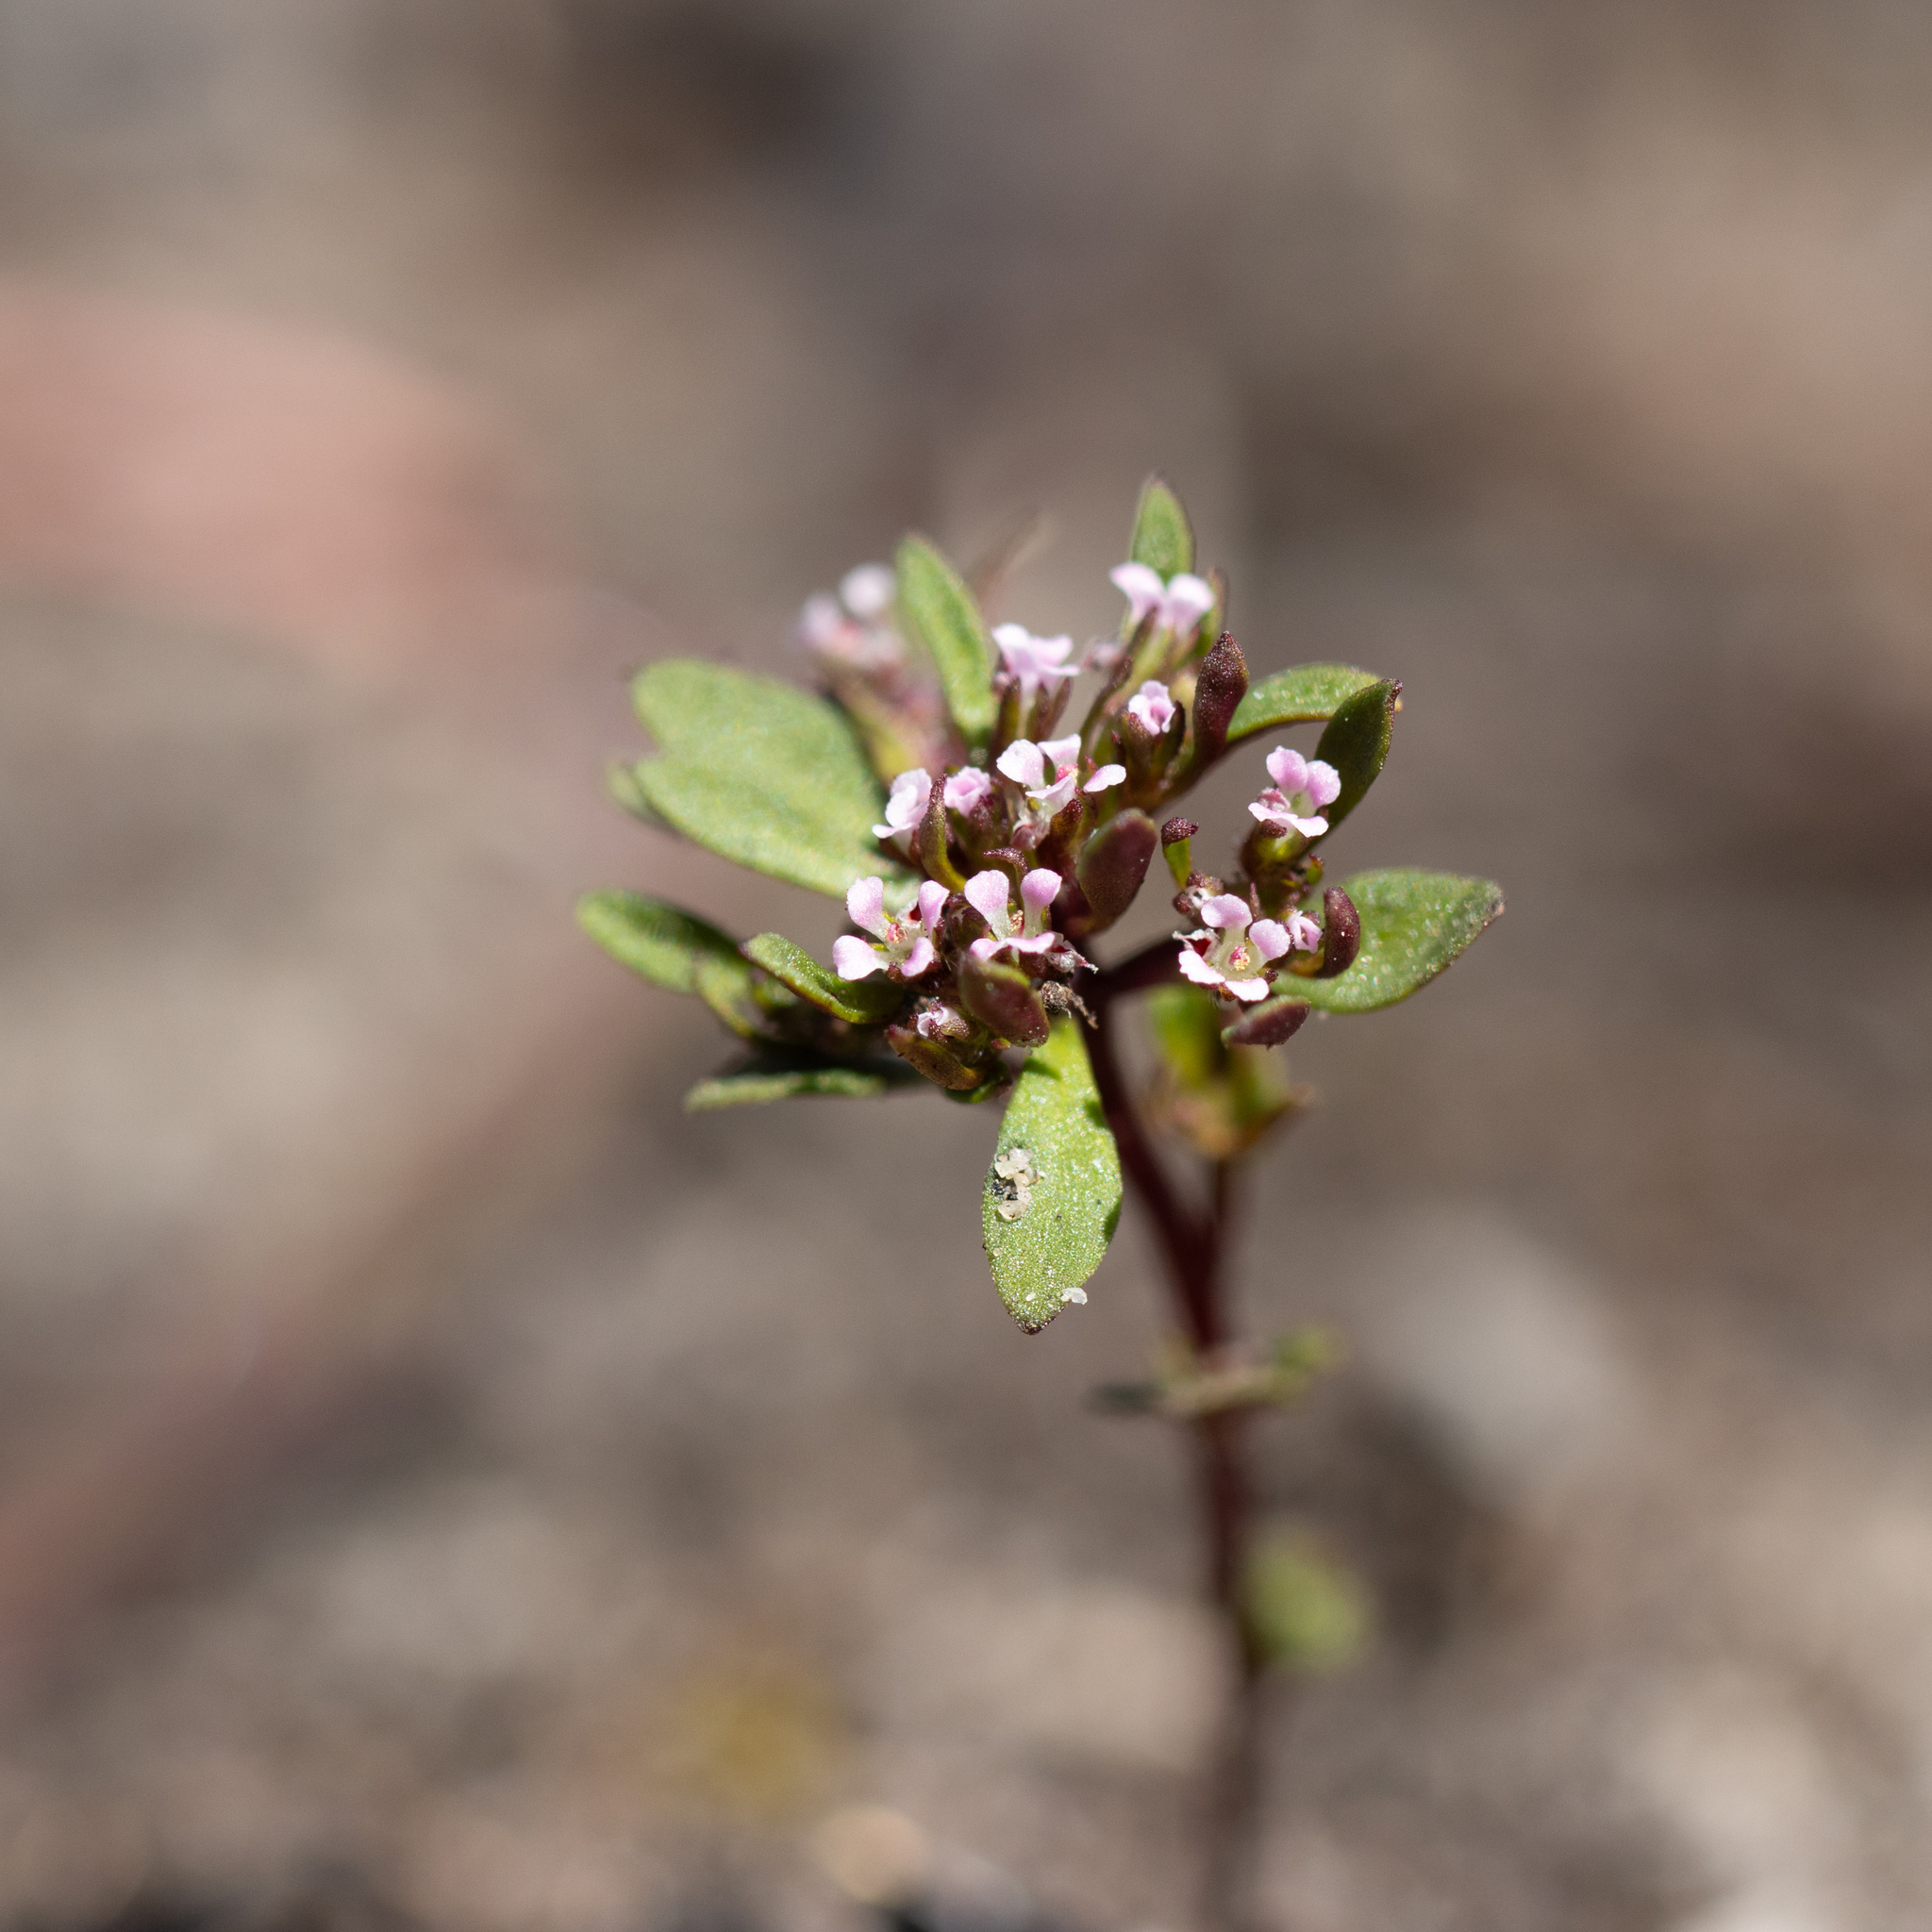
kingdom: Plantae
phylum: Tracheophyta
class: Magnoliopsida
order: Asterales
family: Stylidiaceae
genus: Levenhookia
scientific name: Levenhookia pusilla
